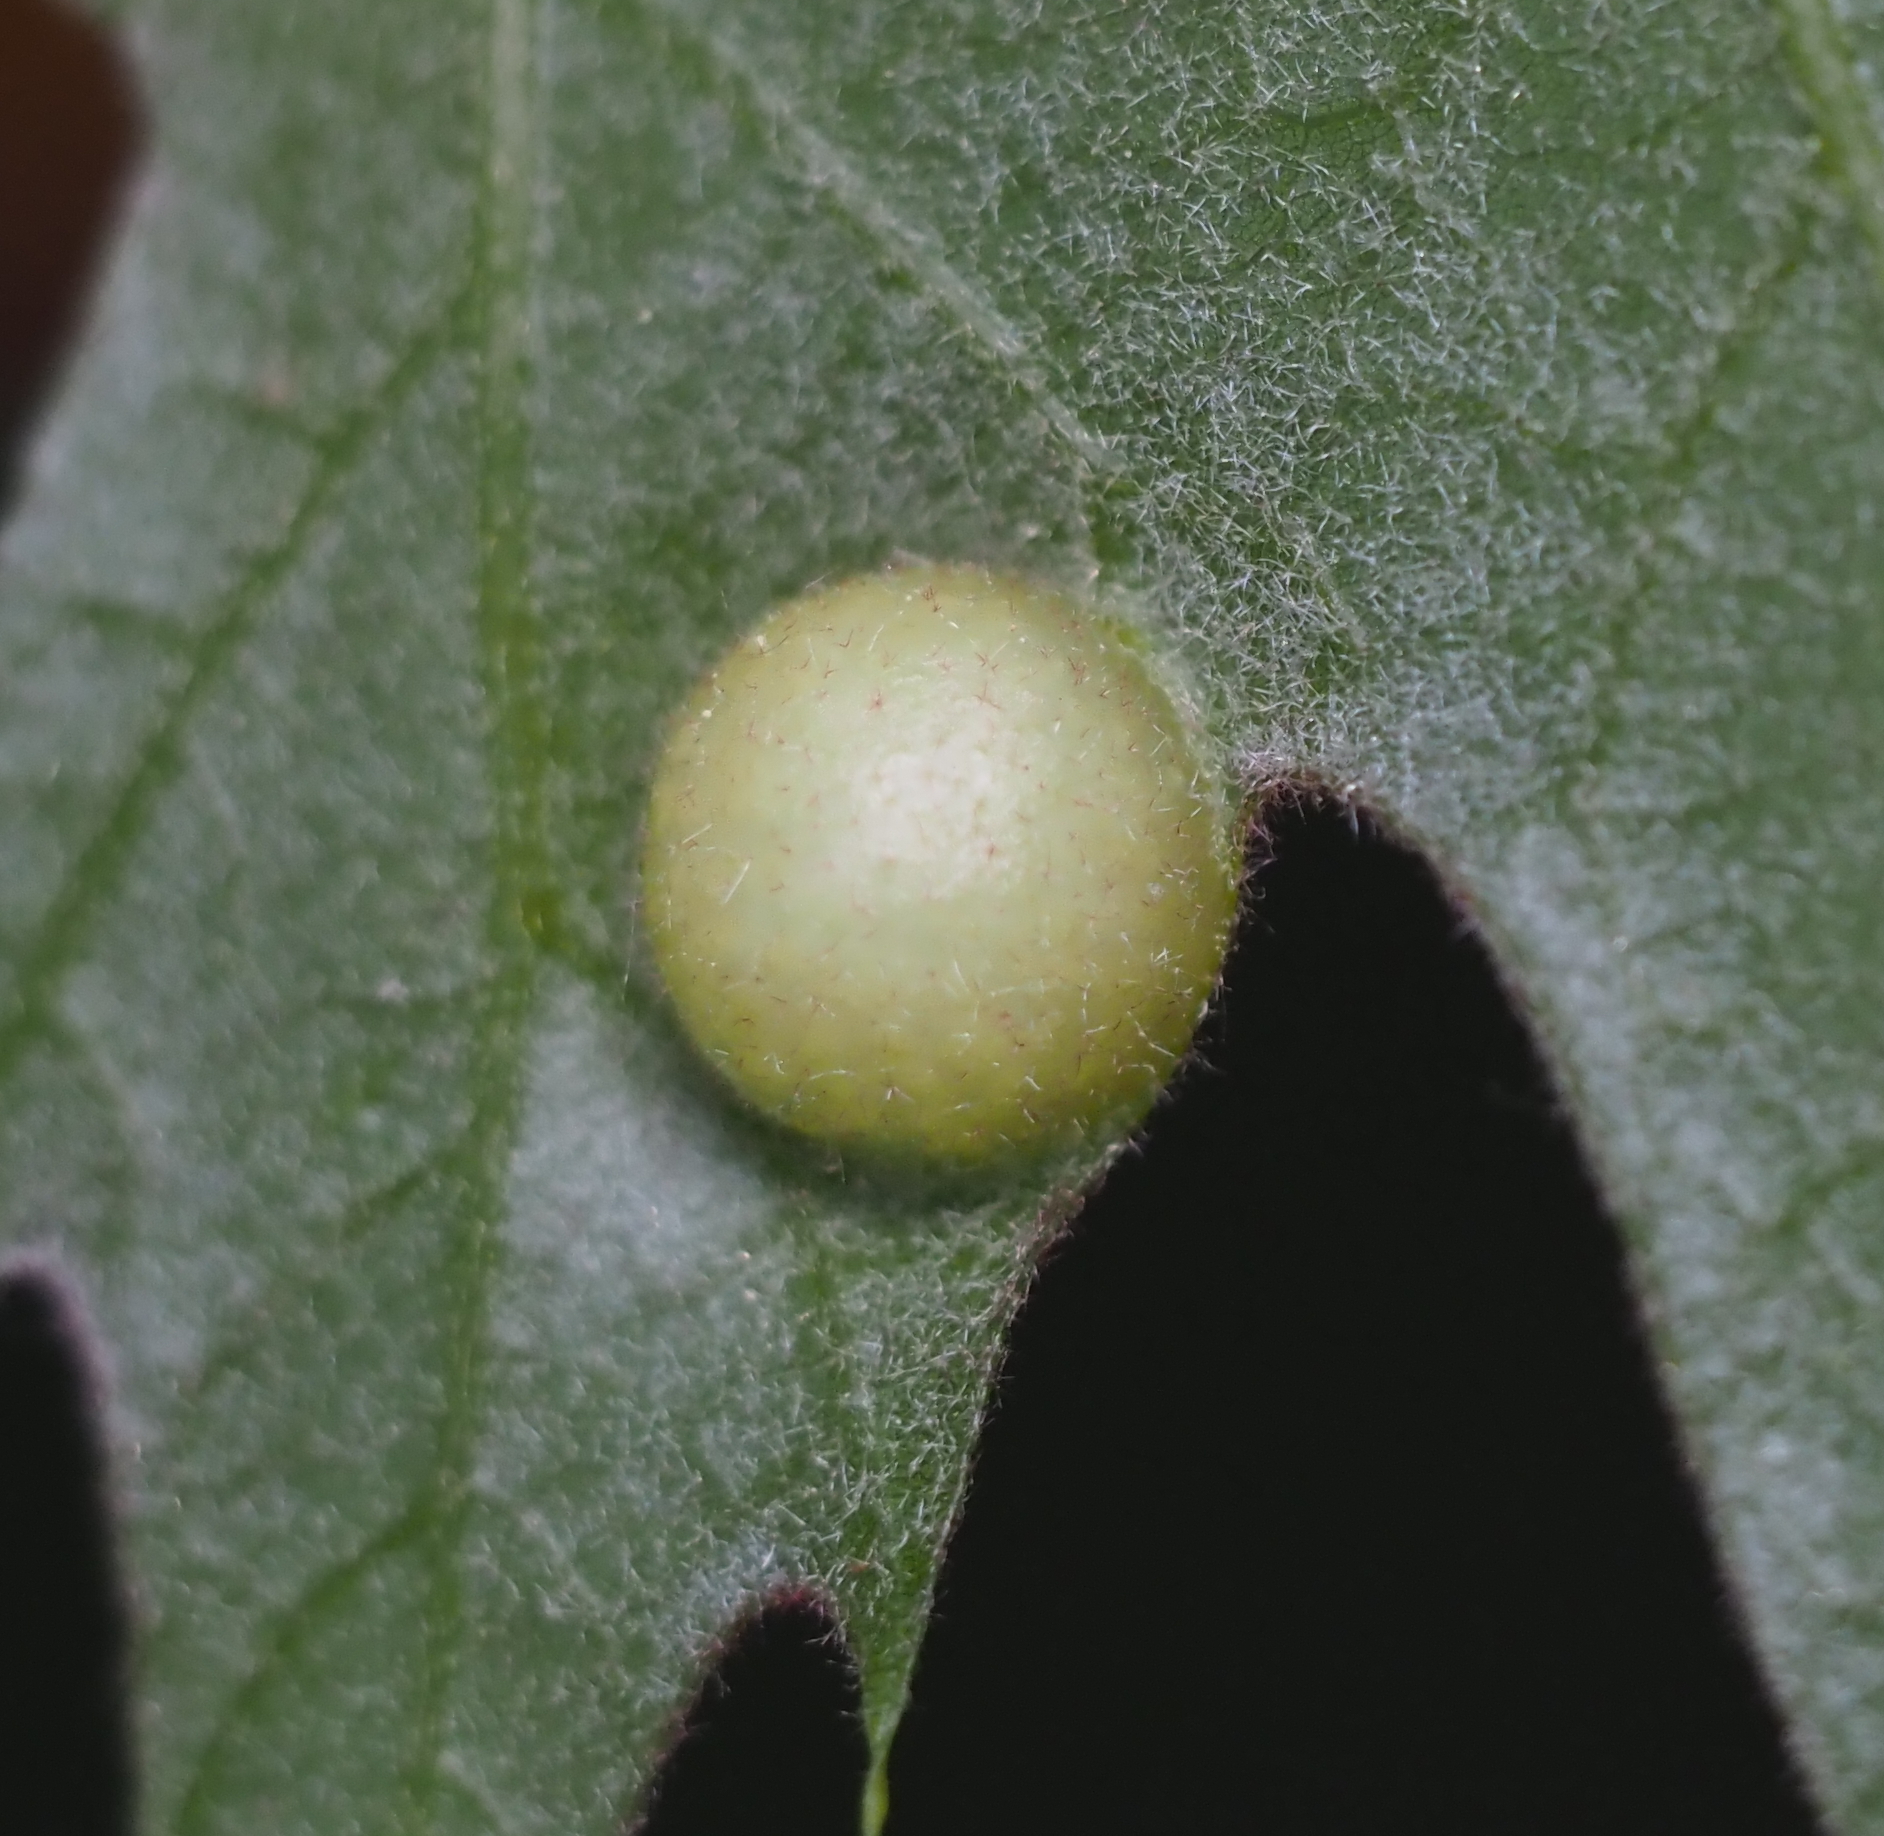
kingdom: Animalia
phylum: Arthropoda
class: Insecta
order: Hymenoptera
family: Cynipidae
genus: Amphibolips
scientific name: Amphibolips
